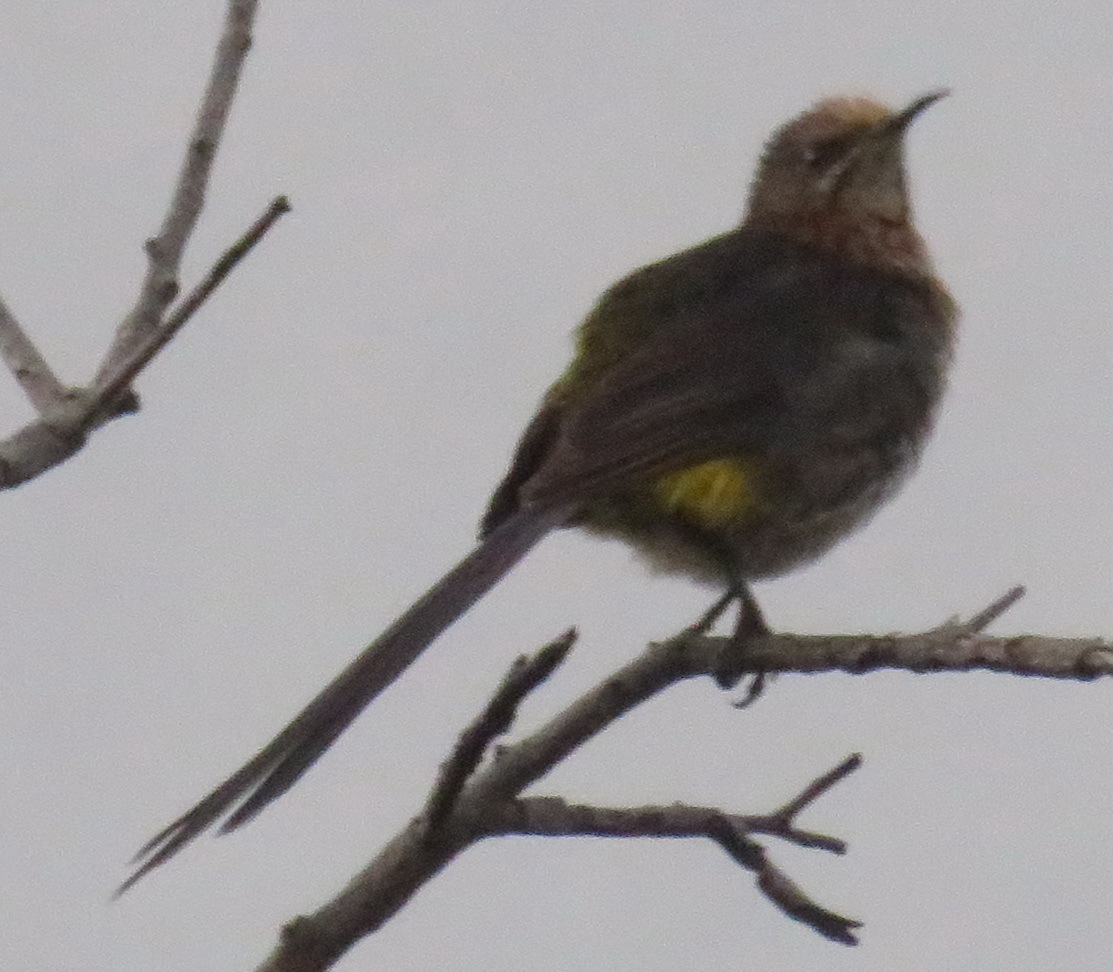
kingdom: Animalia
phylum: Chordata
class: Aves
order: Passeriformes
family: Promeropidae
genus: Promerops
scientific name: Promerops cafer
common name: Cape sugarbird
